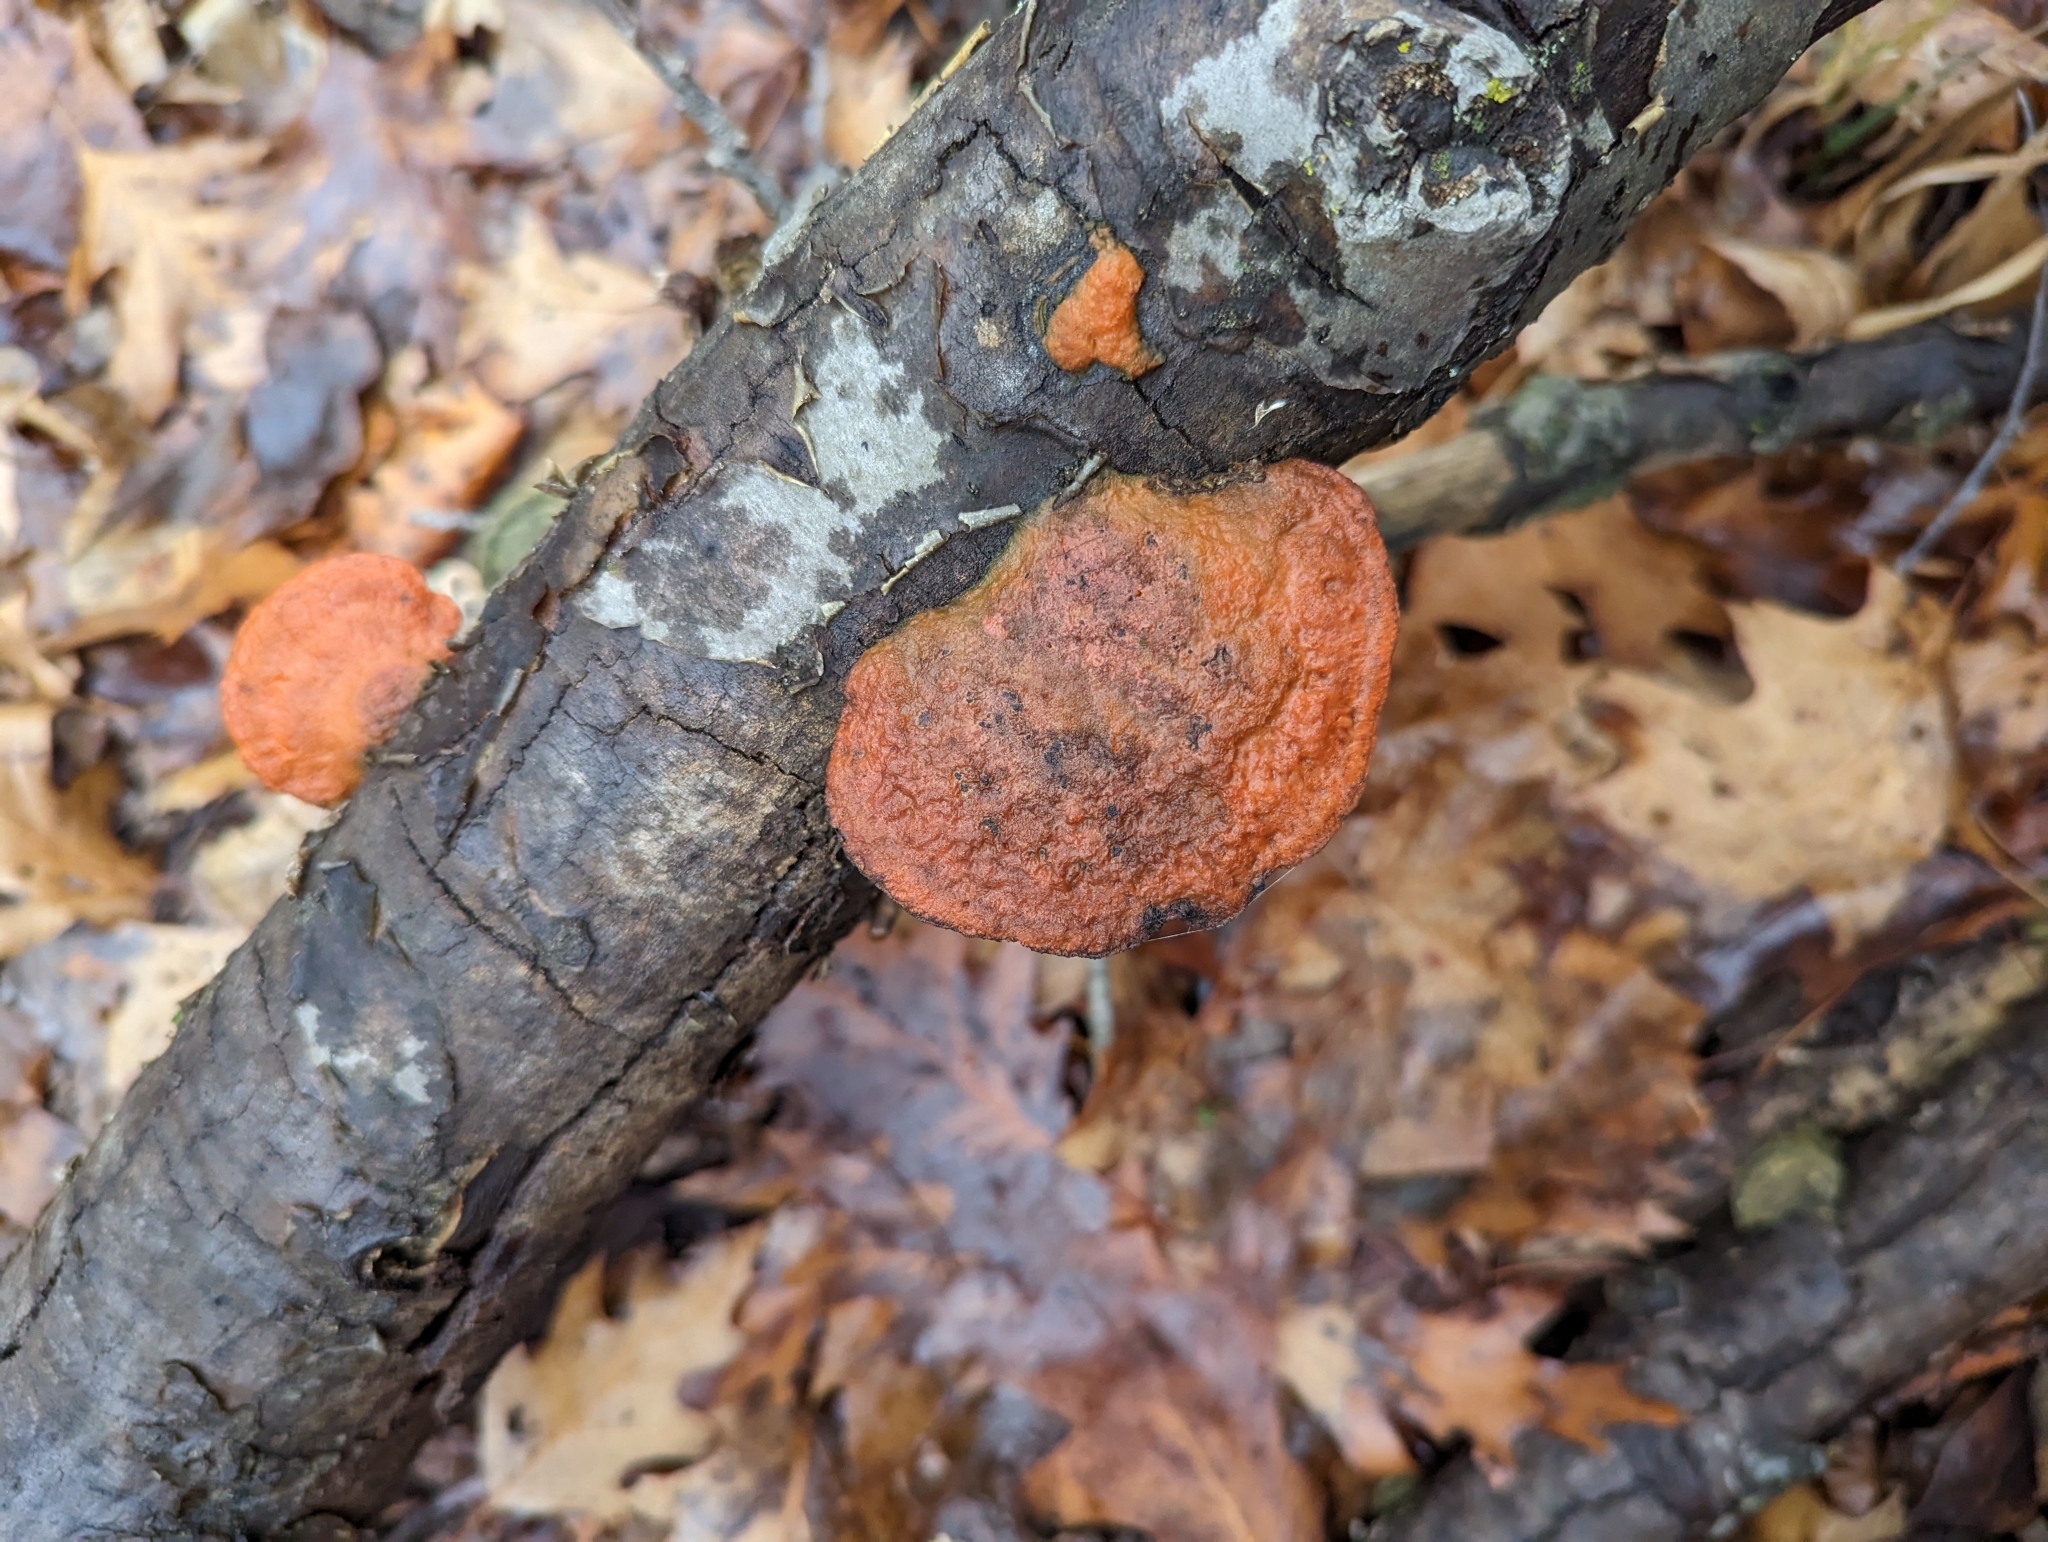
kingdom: Fungi
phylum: Basidiomycota
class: Agaricomycetes
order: Polyporales
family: Polyporaceae
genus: Trametes
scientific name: Trametes cinnabarina
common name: Northern cinnabar polypore
